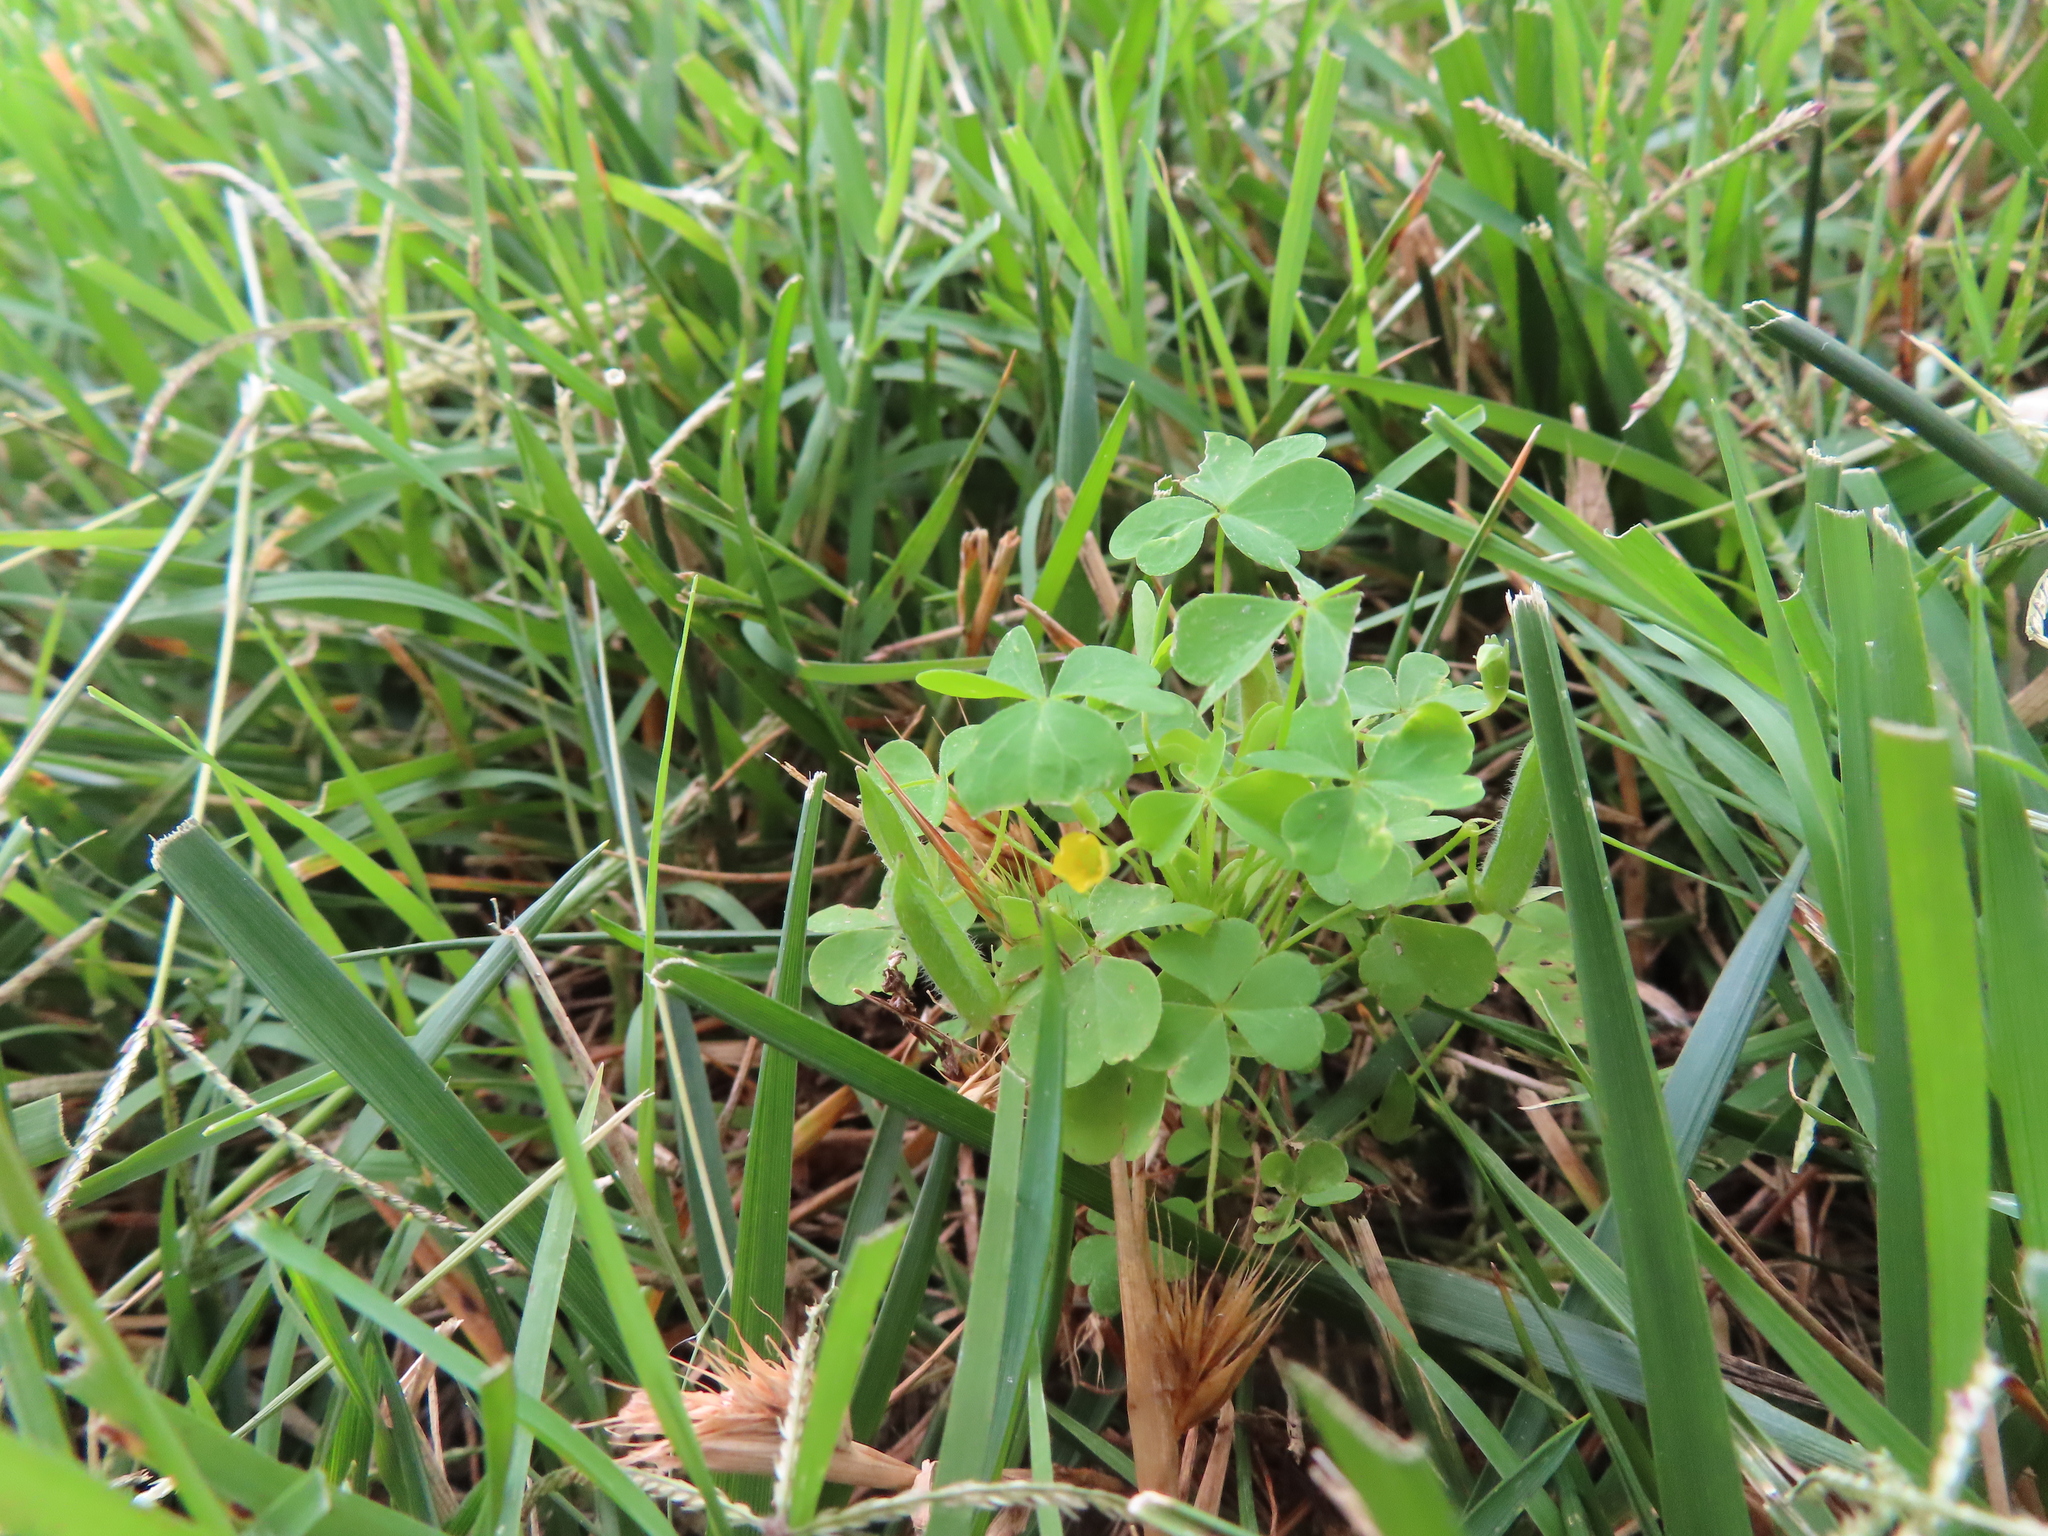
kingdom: Plantae
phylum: Tracheophyta
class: Magnoliopsida
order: Oxalidales
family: Oxalidaceae
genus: Oxalis
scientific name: Oxalis dillenii
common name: Sussex yellow-sorrel
